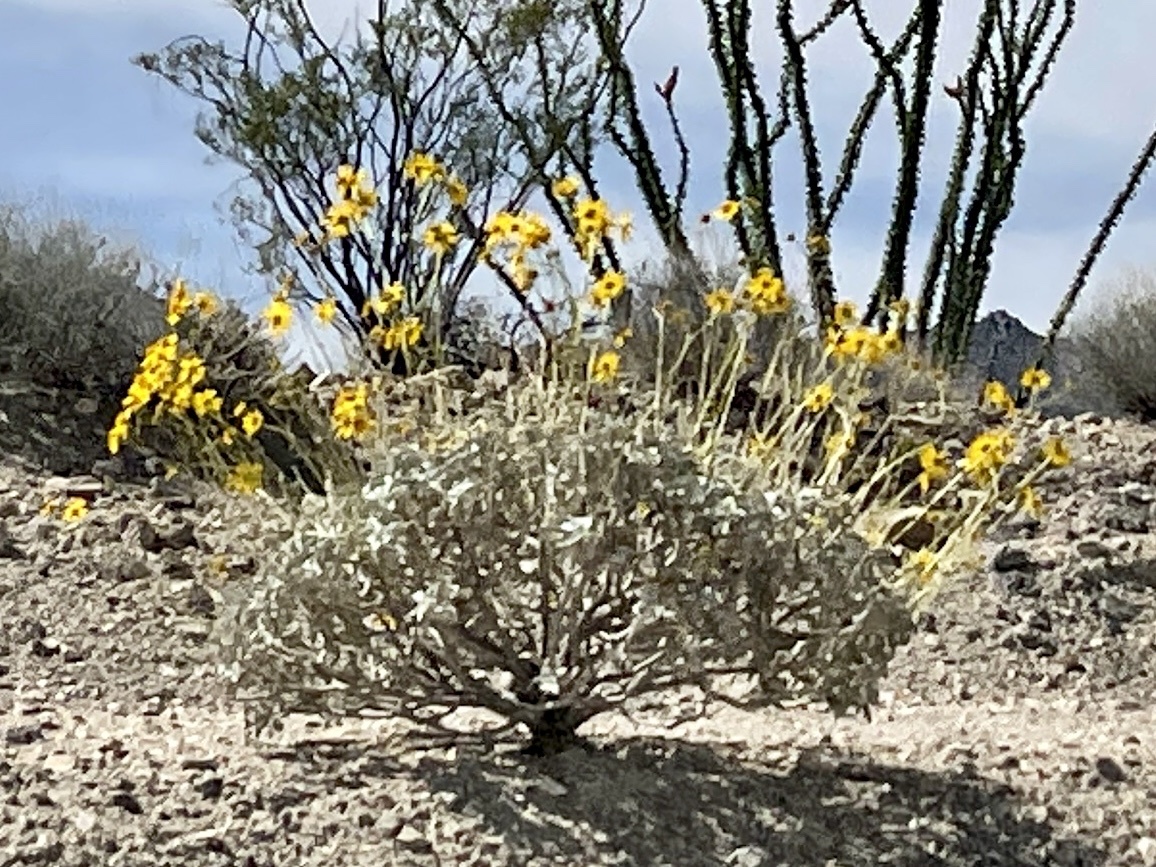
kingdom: Plantae
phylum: Tracheophyta
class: Magnoliopsida
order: Asterales
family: Asteraceae
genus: Encelia
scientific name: Encelia farinosa
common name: Brittlebush
